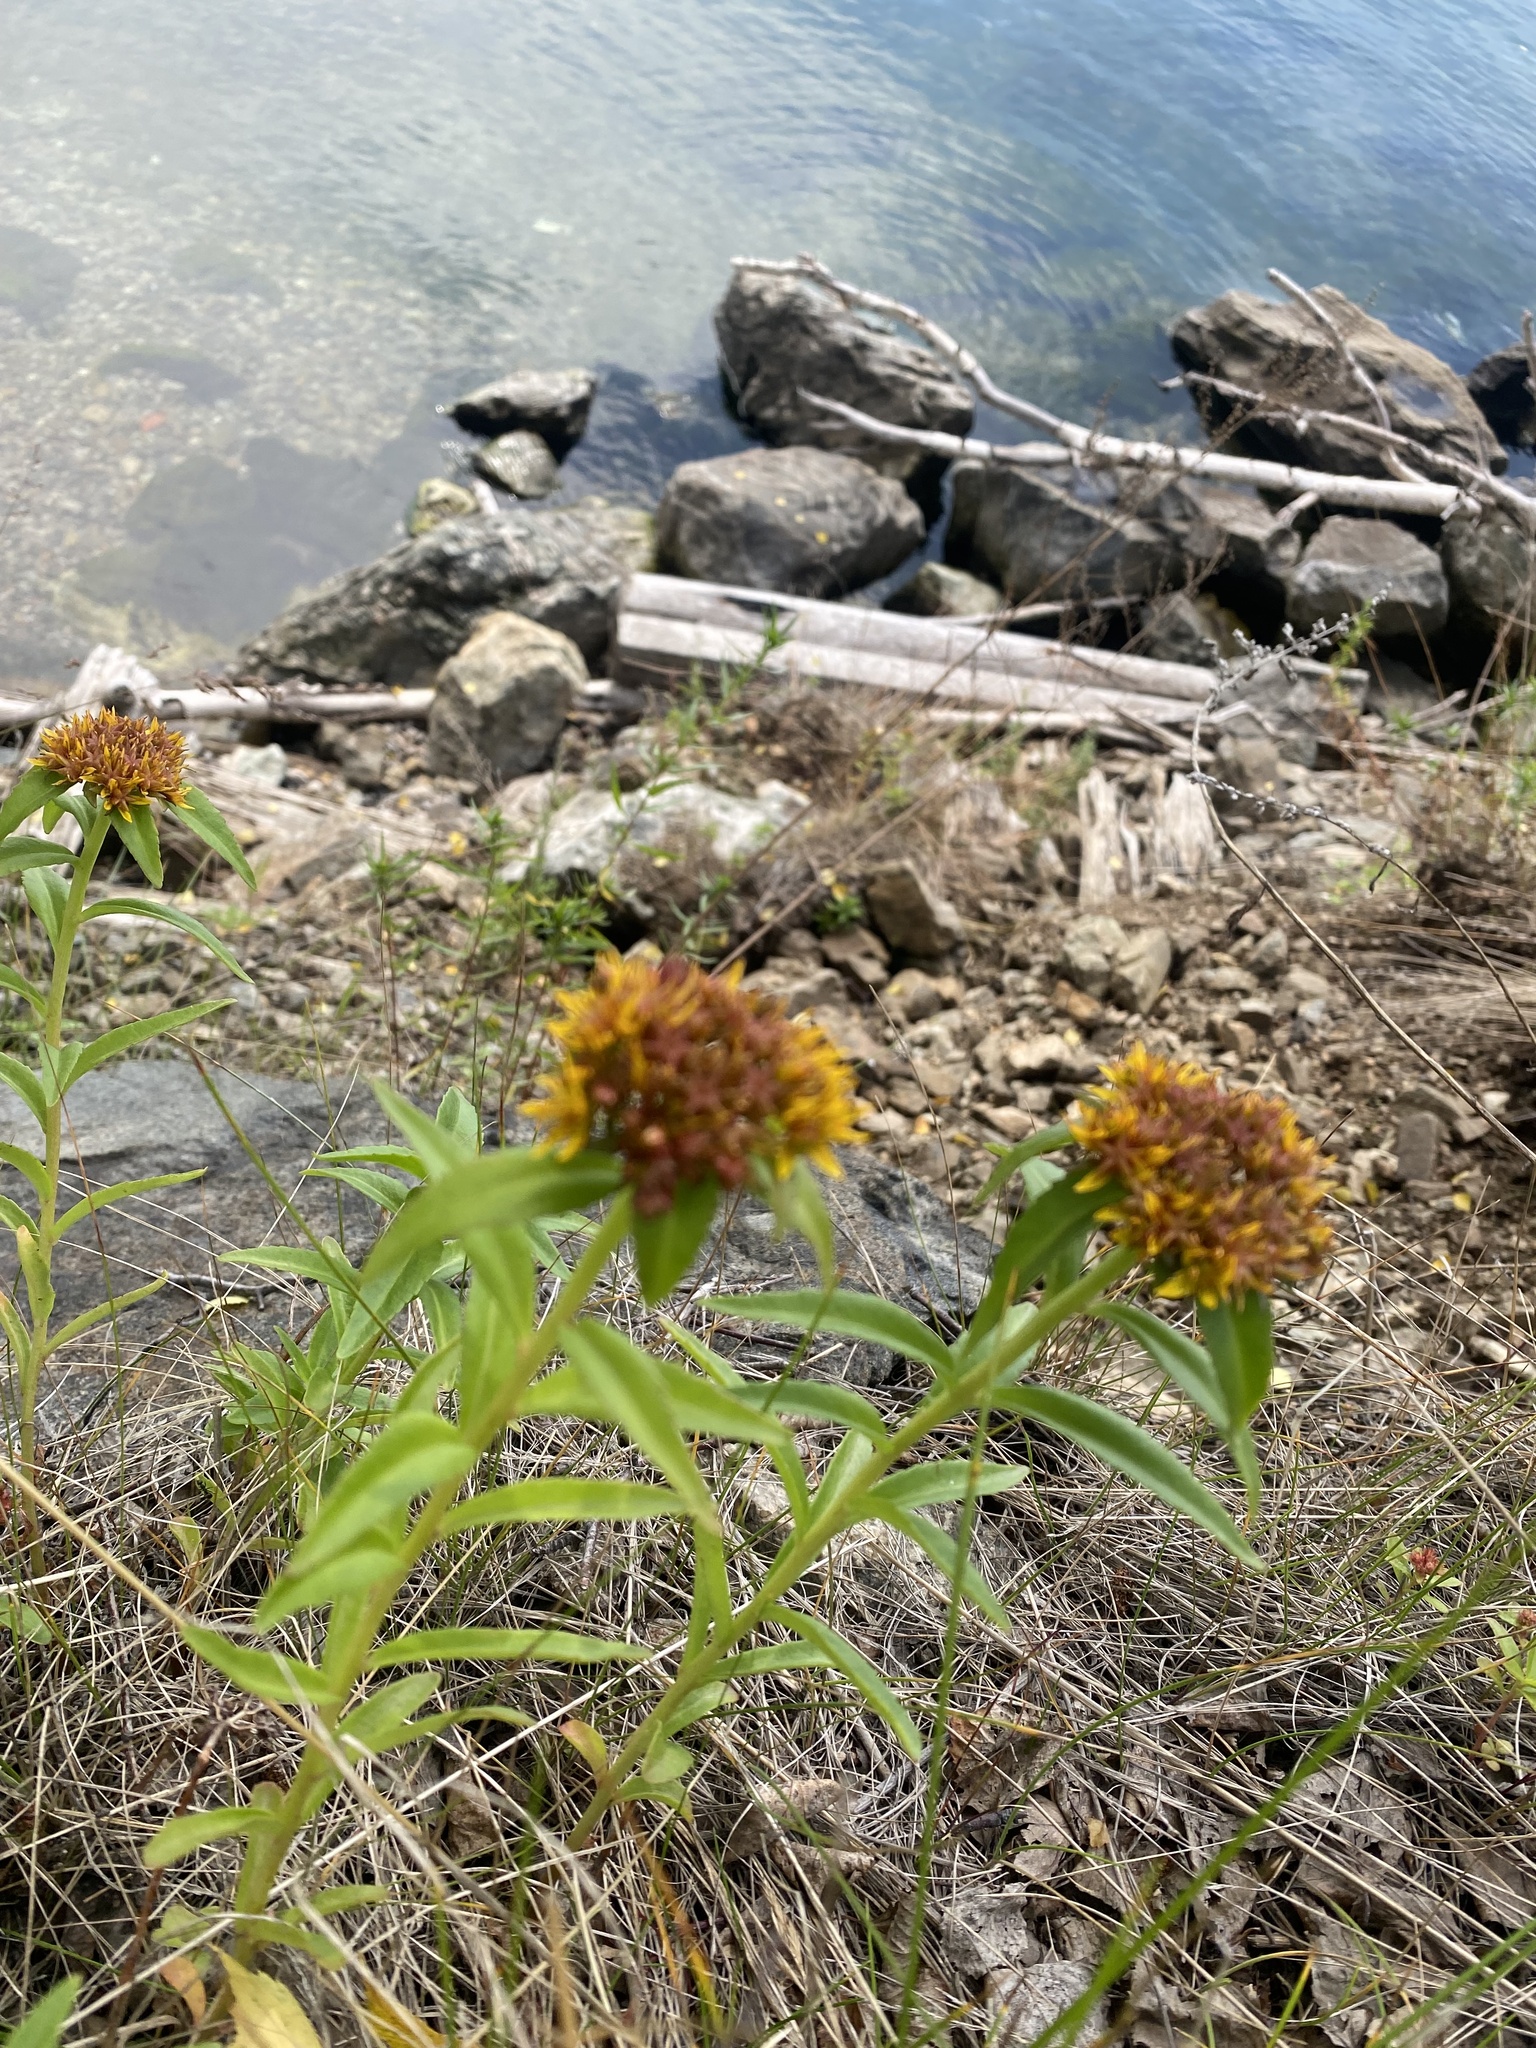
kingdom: Plantae
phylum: Tracheophyta
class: Magnoliopsida
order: Saxifragales
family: Crassulaceae
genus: Phedimus
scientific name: Phedimus aizoon
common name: Orpin aizoon
